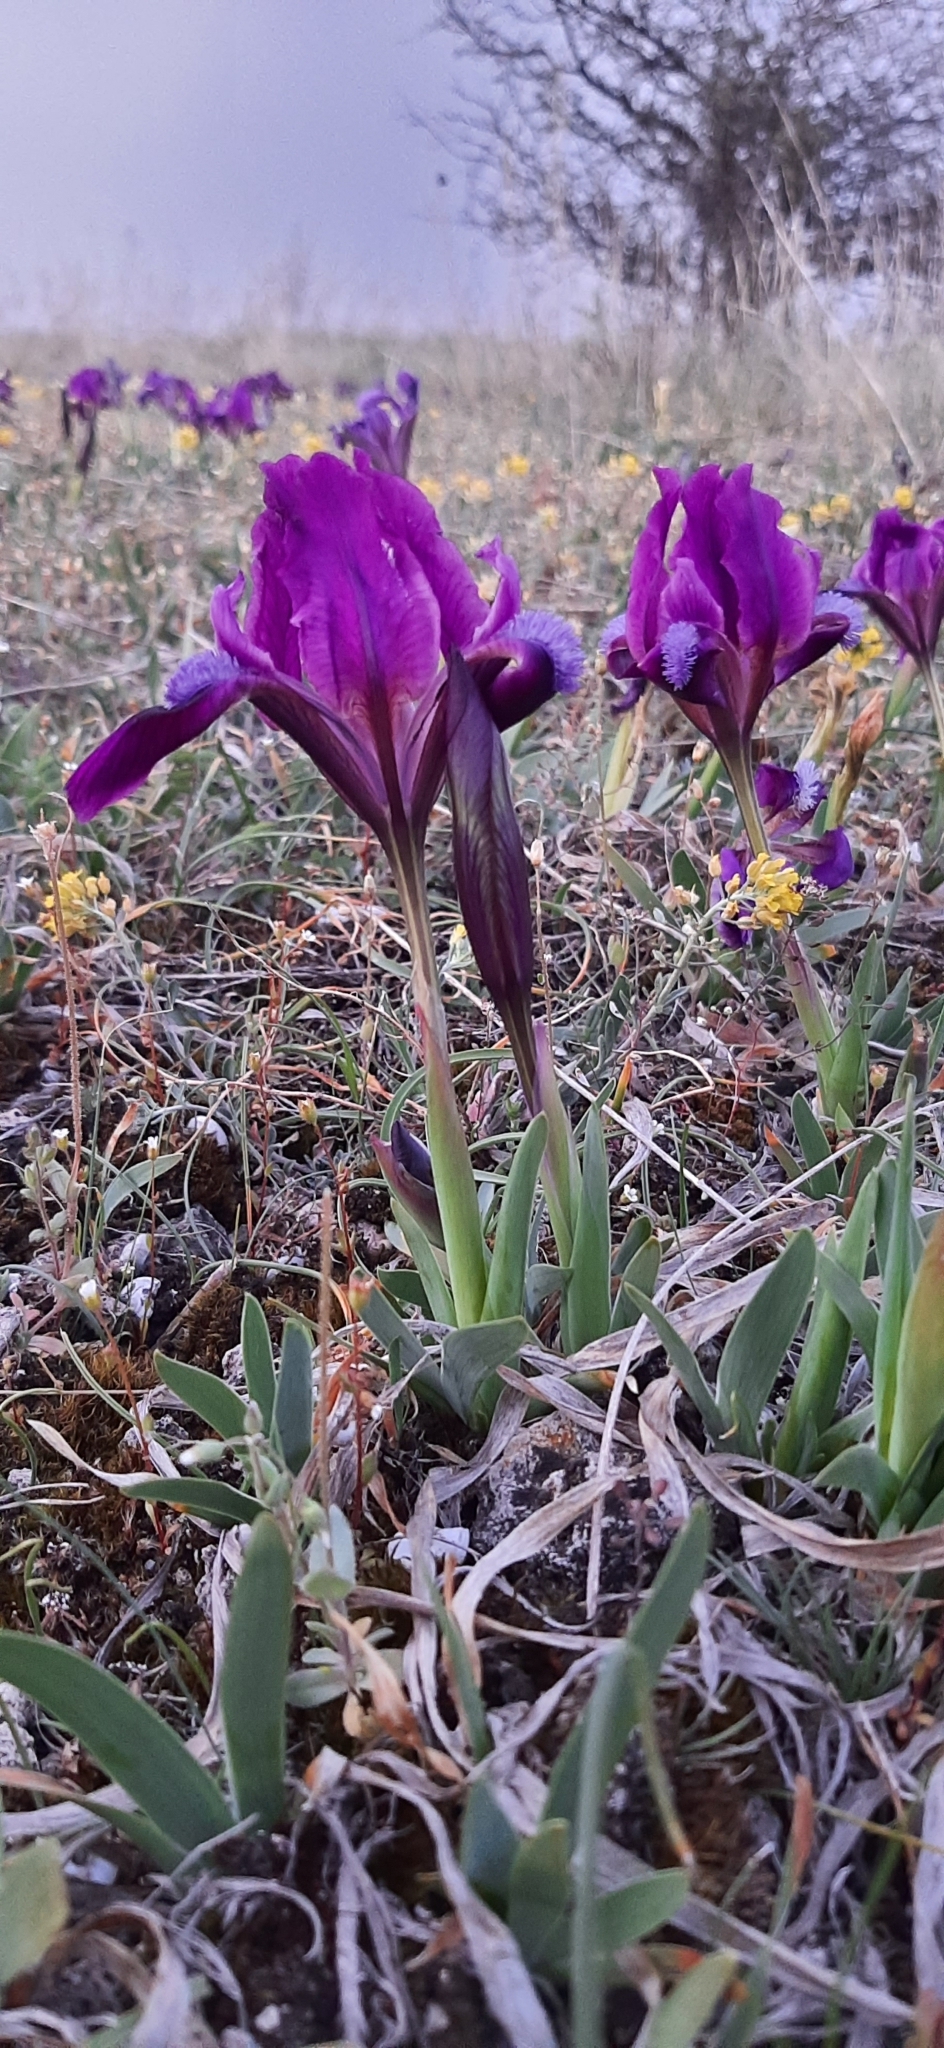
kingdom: Plantae
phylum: Tracheophyta
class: Liliopsida
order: Asparagales
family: Iridaceae
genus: Iris
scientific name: Iris pumila
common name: Dwarf iris
